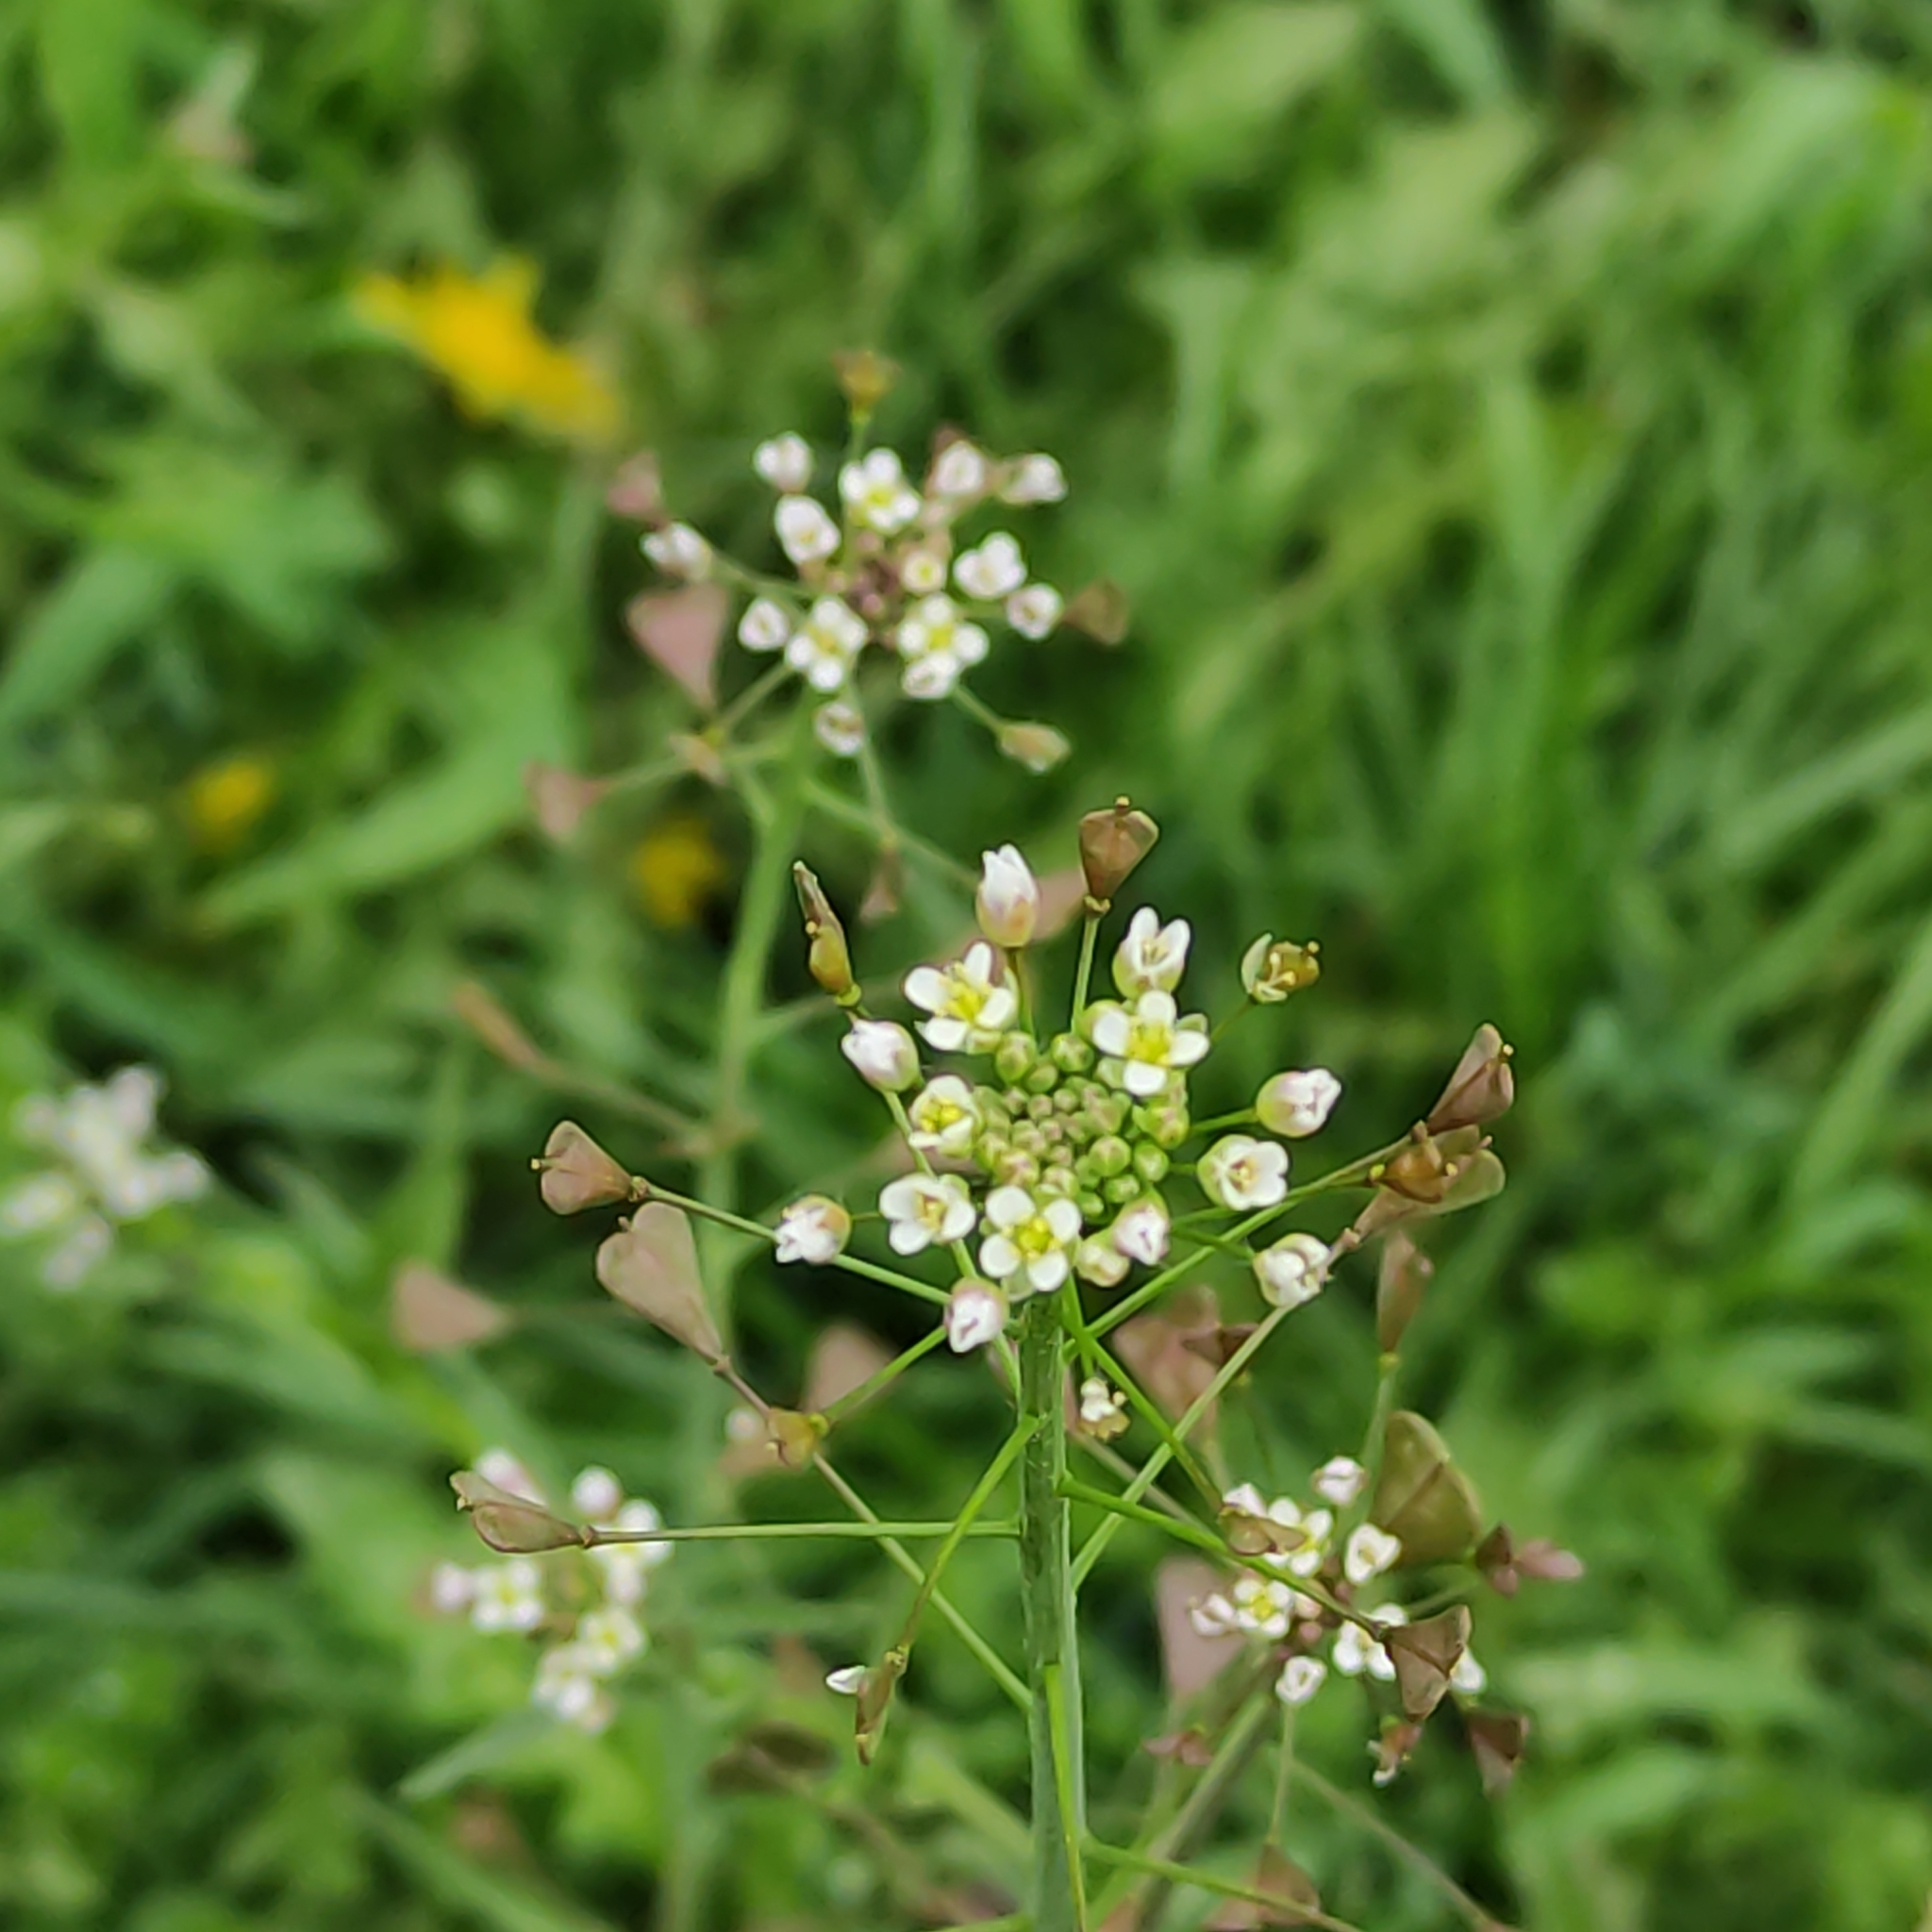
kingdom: Plantae
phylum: Tracheophyta
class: Magnoliopsida
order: Brassicales
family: Brassicaceae
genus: Capsella
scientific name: Capsella bursa-pastoris
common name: Shepherd's purse
